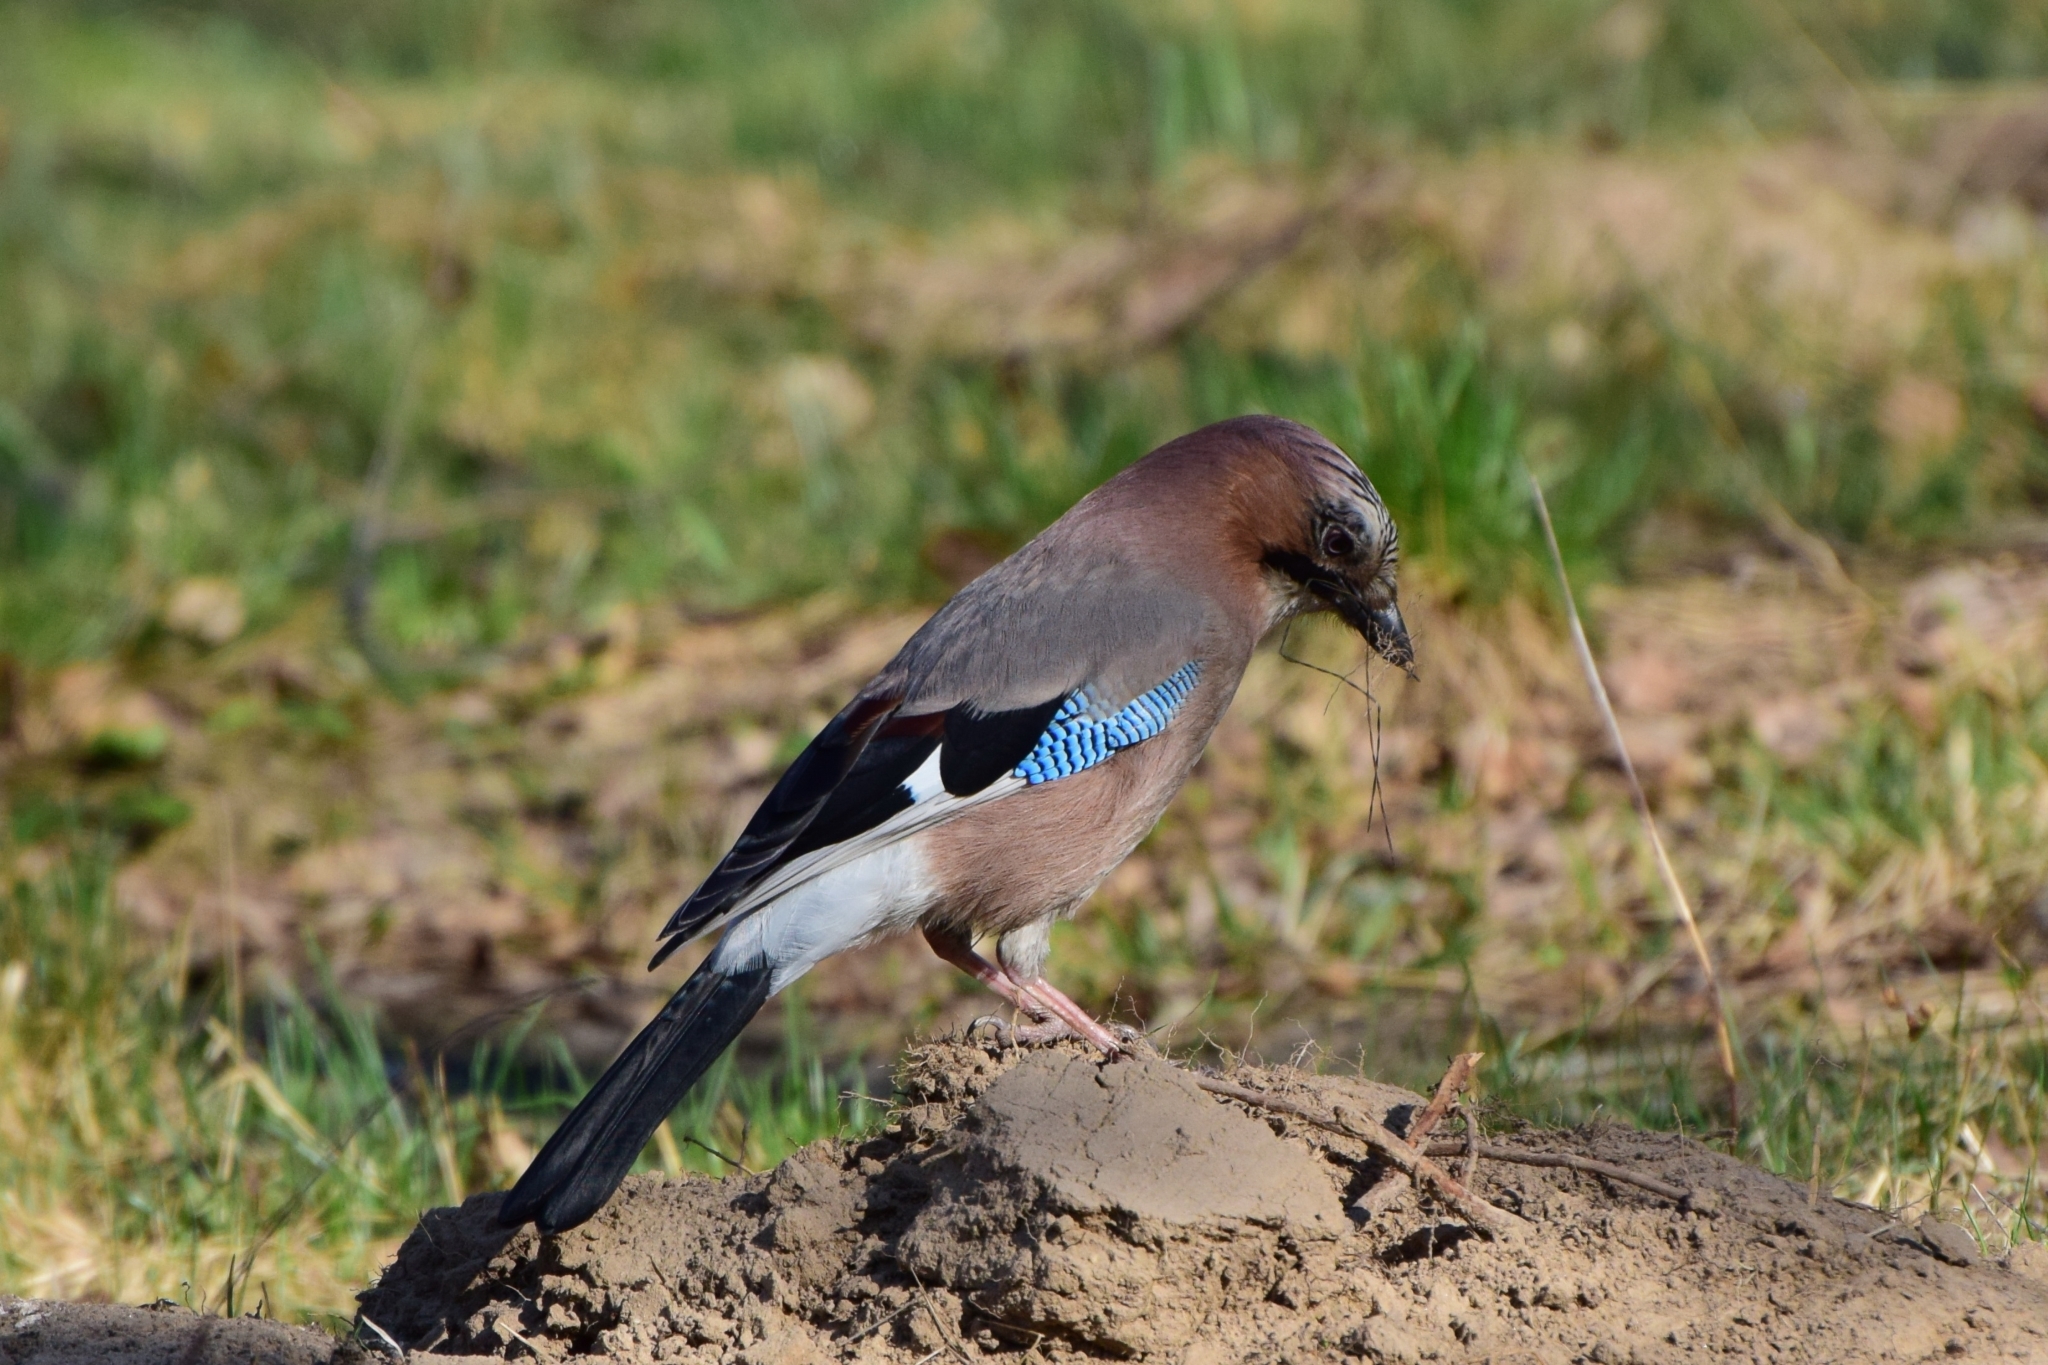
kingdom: Animalia
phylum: Chordata
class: Aves
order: Passeriformes
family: Corvidae
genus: Garrulus
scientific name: Garrulus glandarius
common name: Eurasian jay
